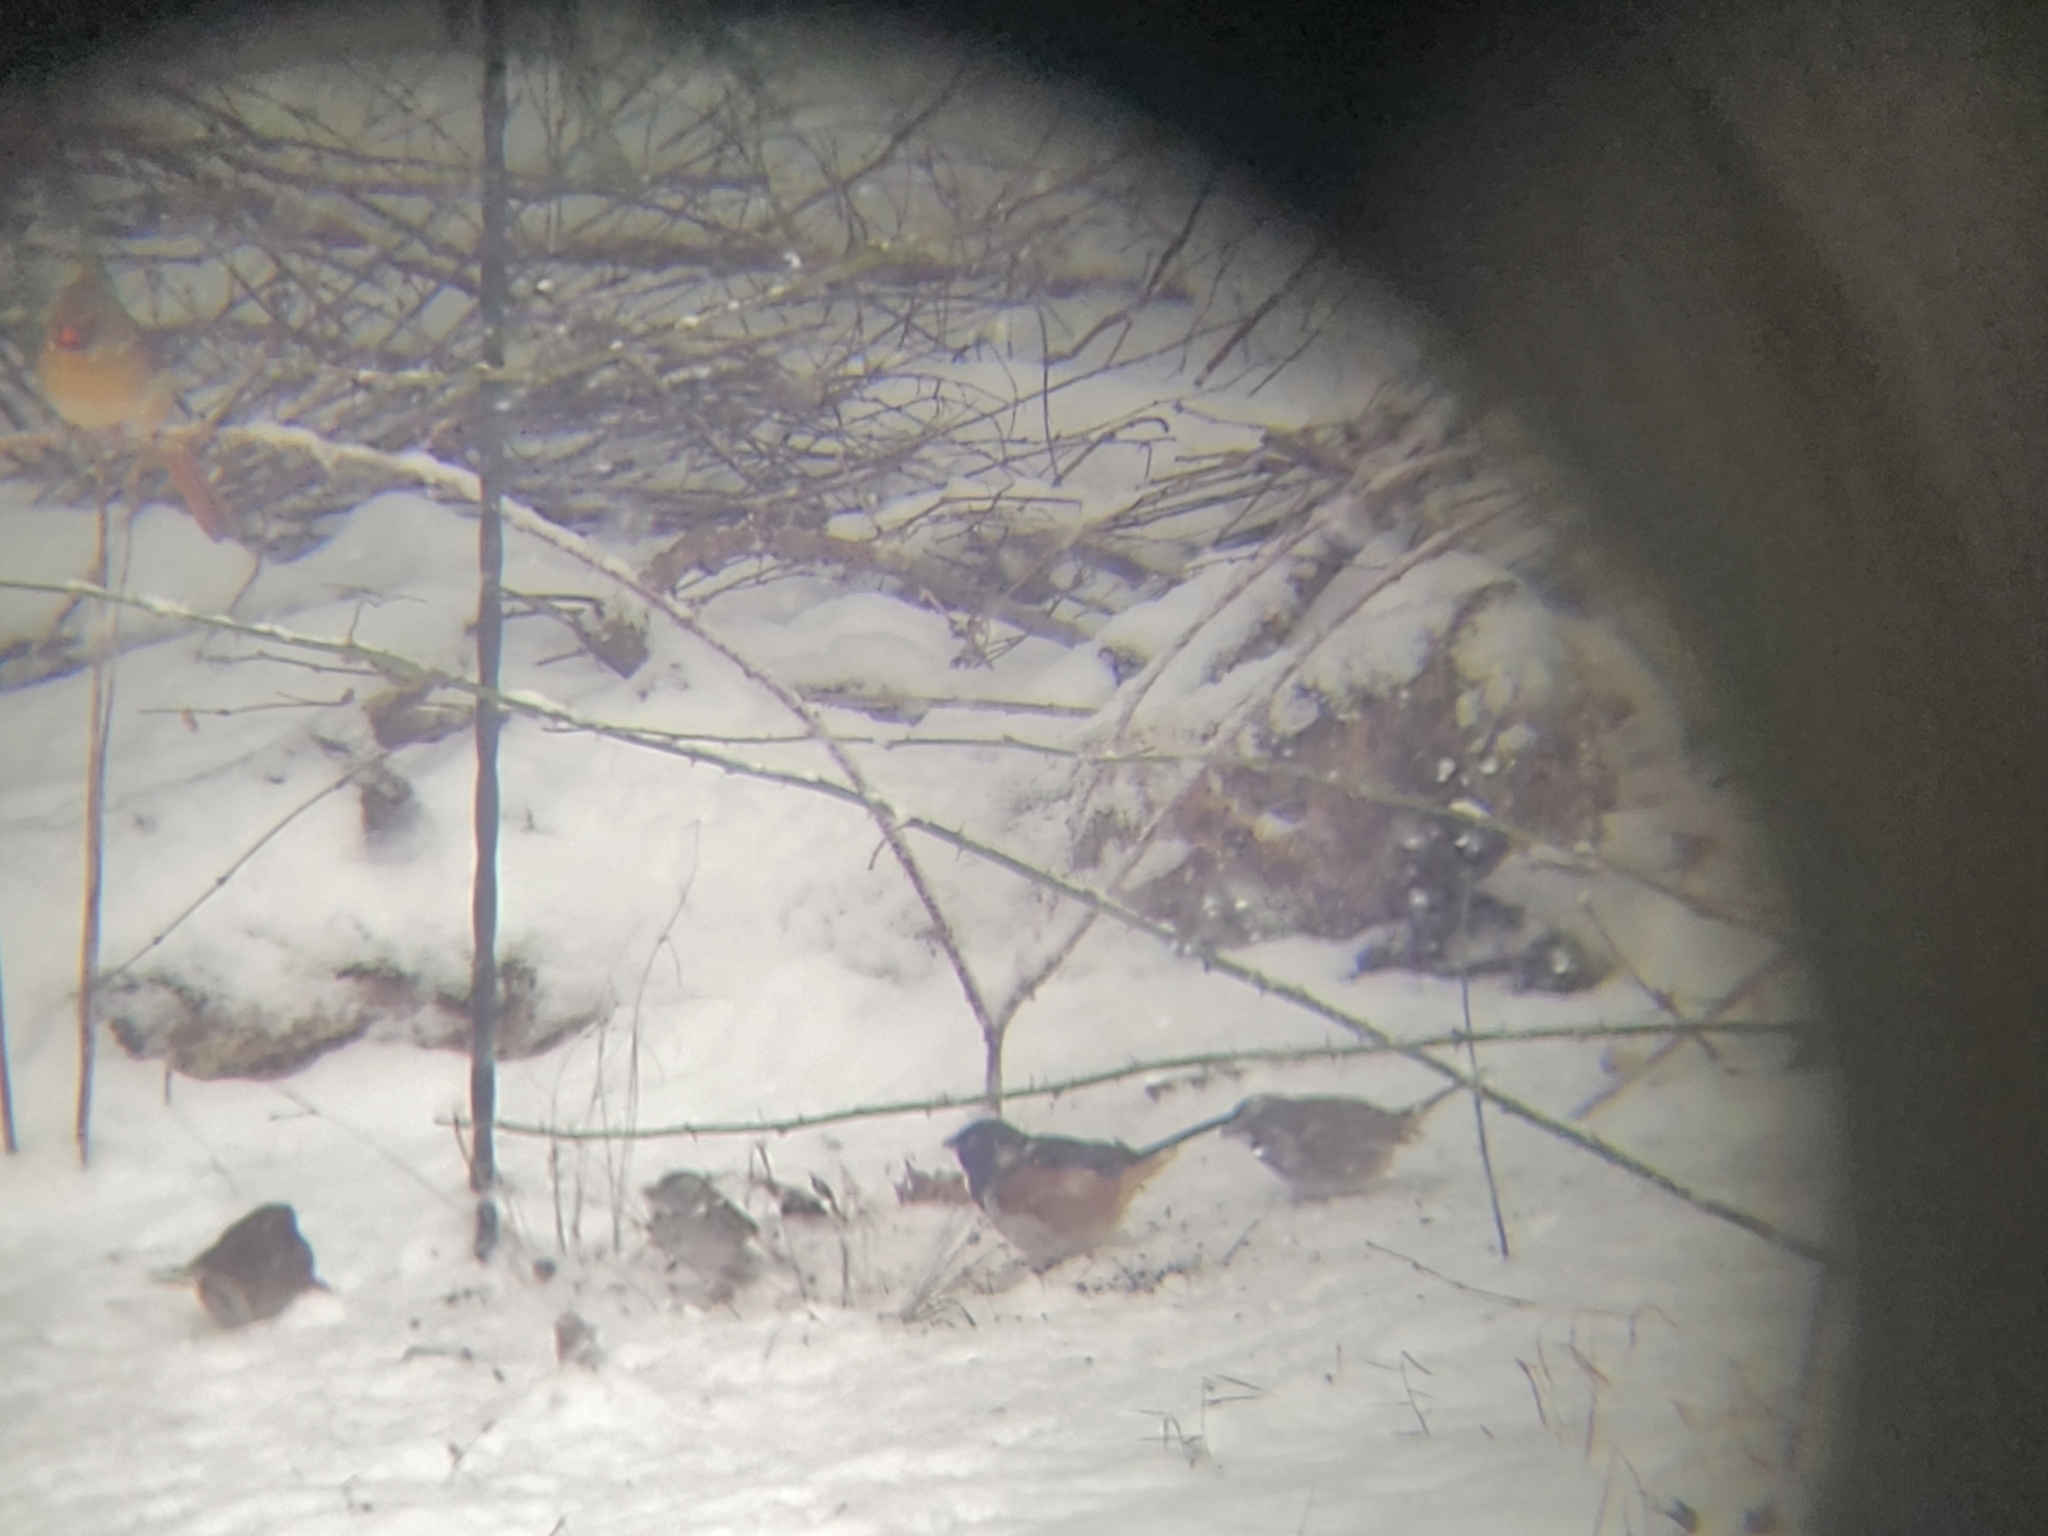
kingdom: Animalia
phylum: Chordata
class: Aves
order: Passeriformes
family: Passerellidae
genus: Pipilo
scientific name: Pipilo erythrophthalmus
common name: Eastern towhee
